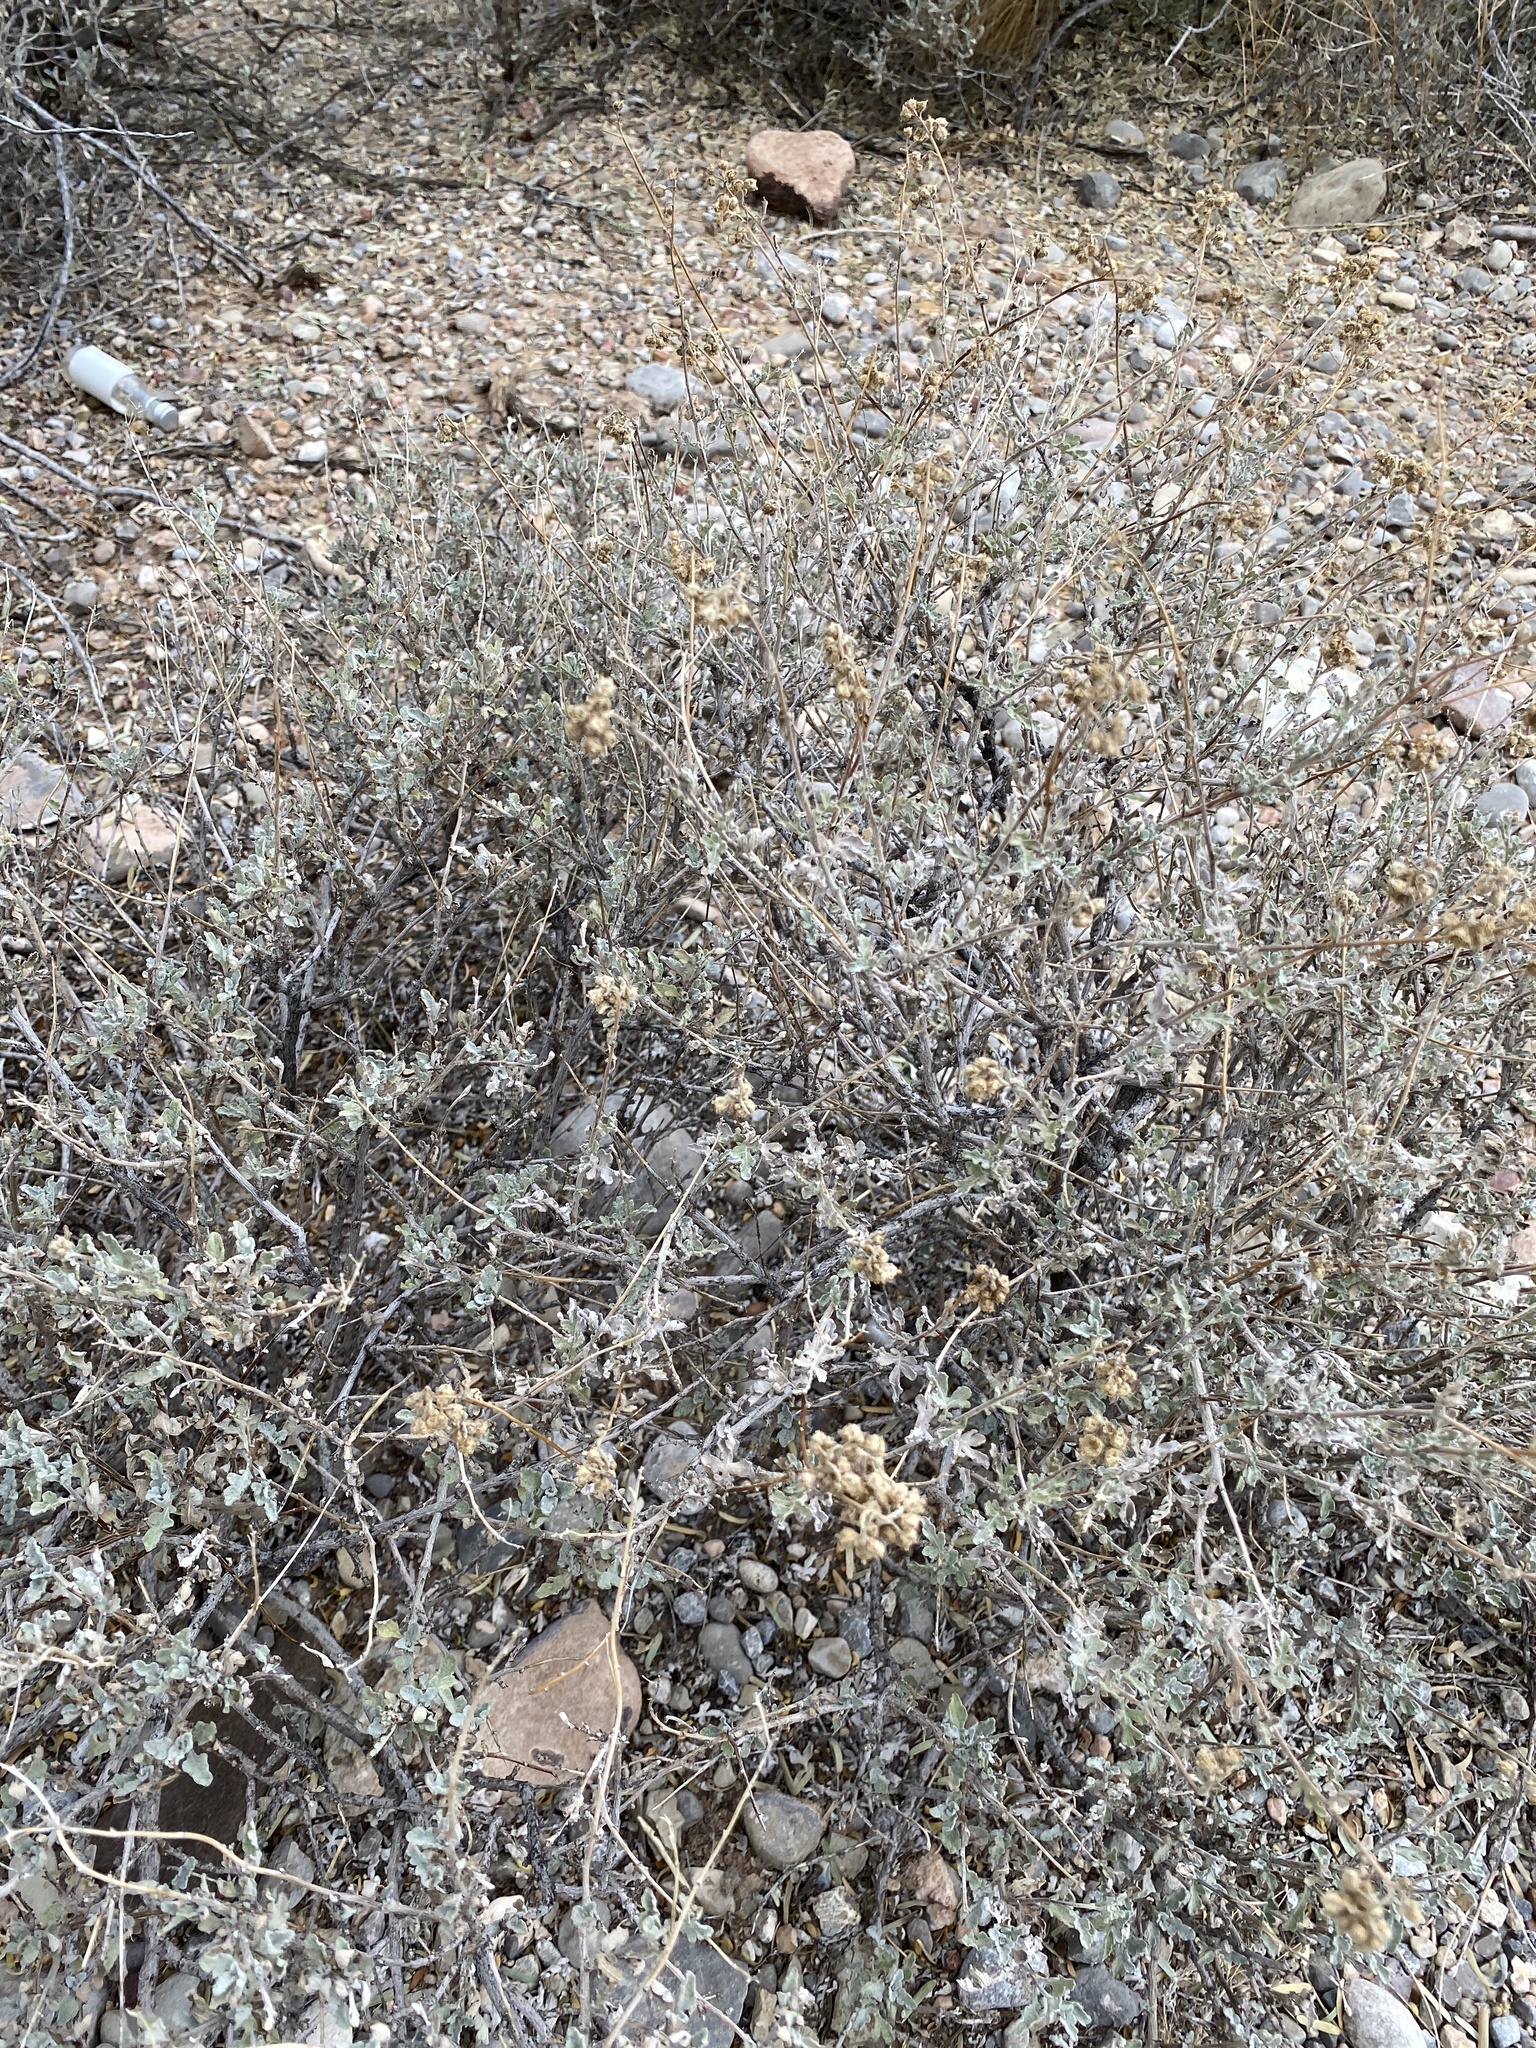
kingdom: Plantae
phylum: Tracheophyta
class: Magnoliopsida
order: Asterales
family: Asteraceae
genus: Parthenium
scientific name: Parthenium incanum
